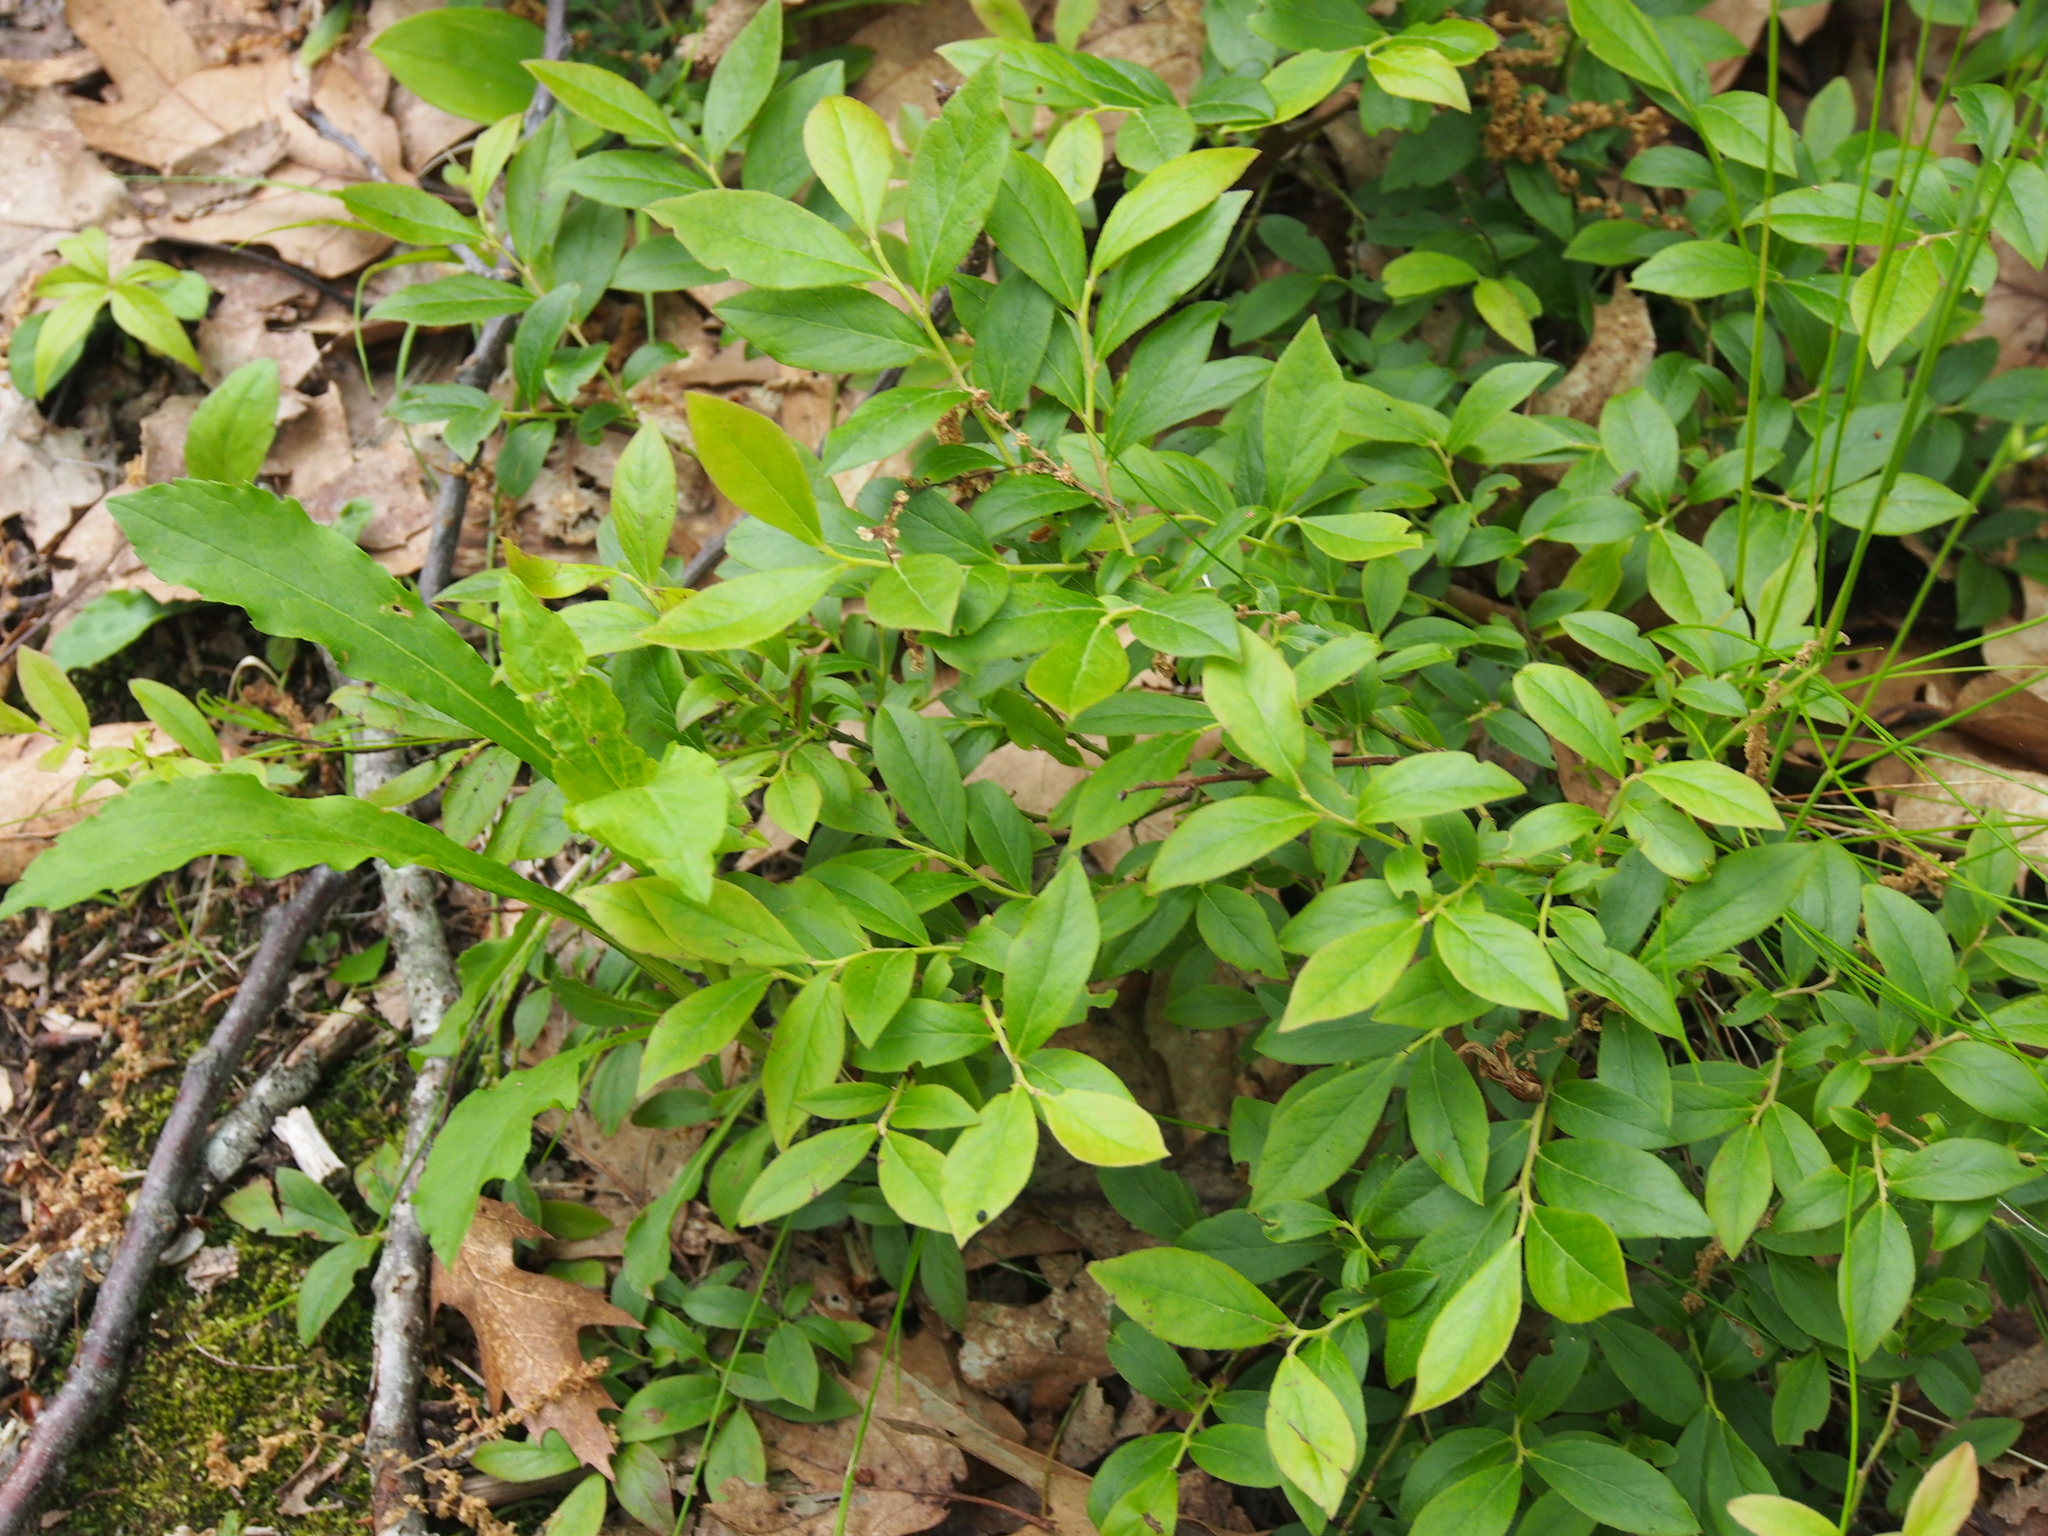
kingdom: Plantae
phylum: Tracheophyta
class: Magnoliopsida
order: Ericales
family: Ericaceae
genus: Vaccinium
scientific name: Vaccinium angustifolium
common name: Early lowbush blueberry
